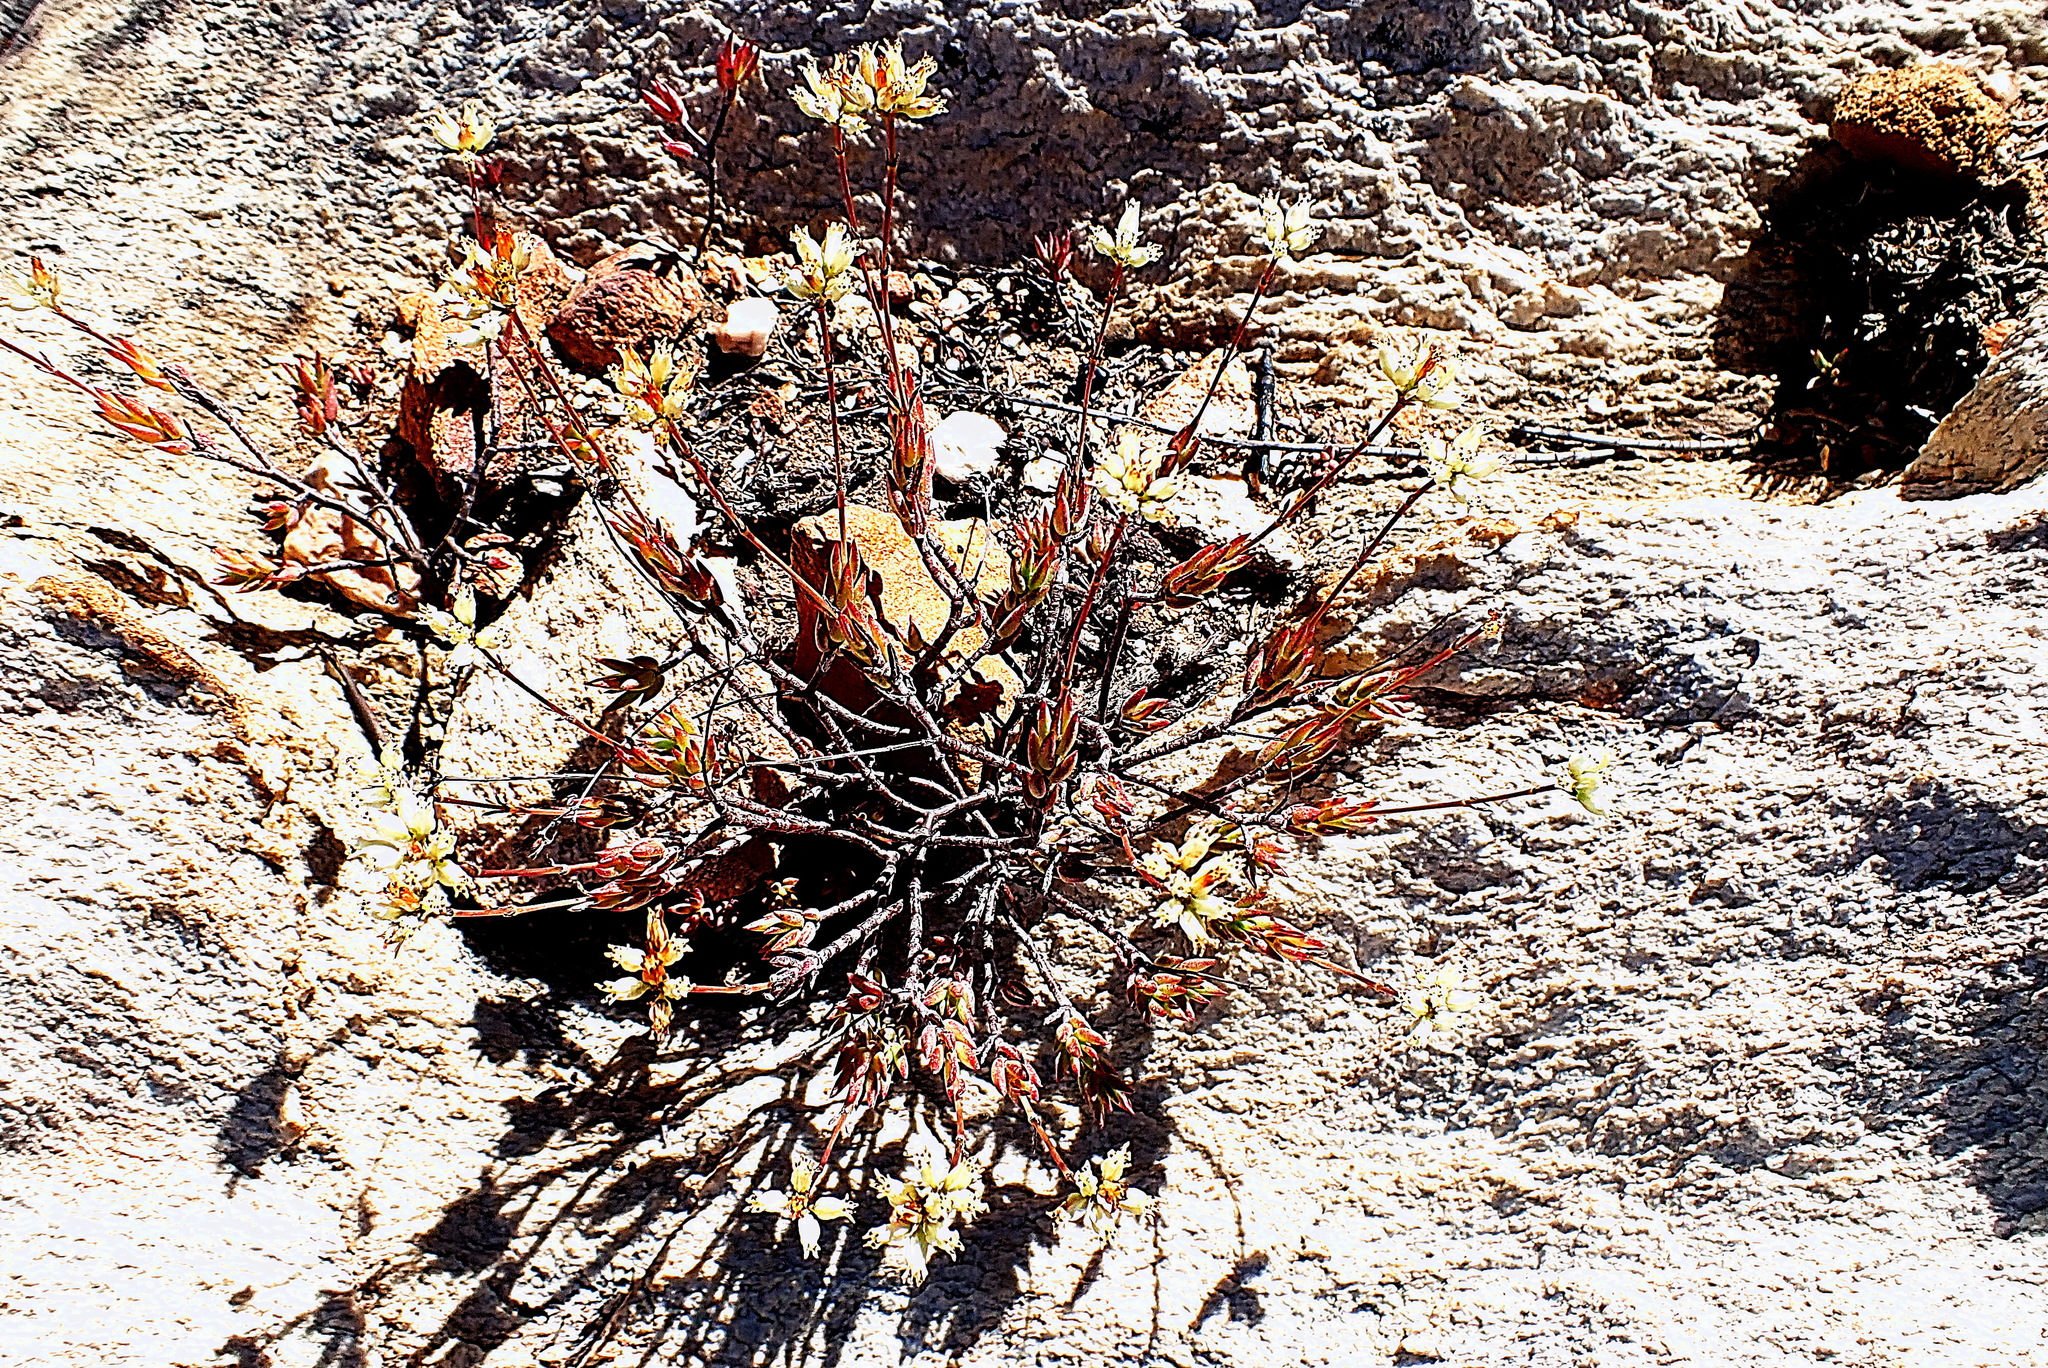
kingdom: Plantae
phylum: Tracheophyta
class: Magnoliopsida
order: Saxifragales
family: Crassulaceae
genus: Crassula
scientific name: Crassula biplanata
